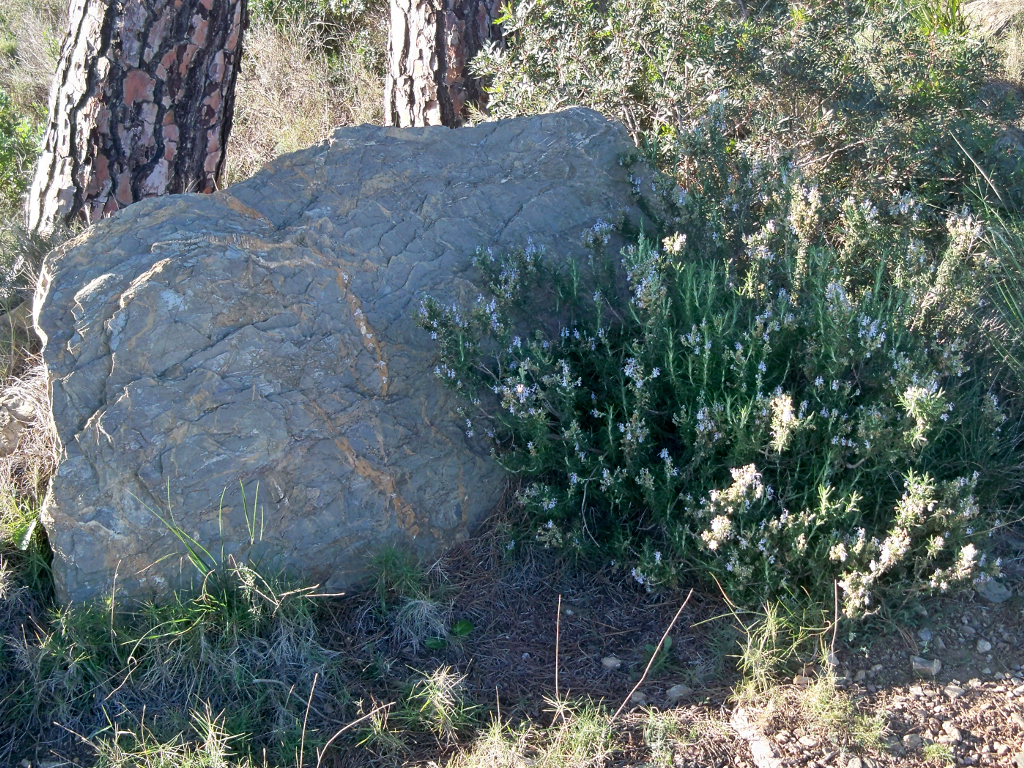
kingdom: Plantae
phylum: Tracheophyta
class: Magnoliopsida
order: Lamiales
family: Lamiaceae
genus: Salvia
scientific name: Salvia rosmarinus
